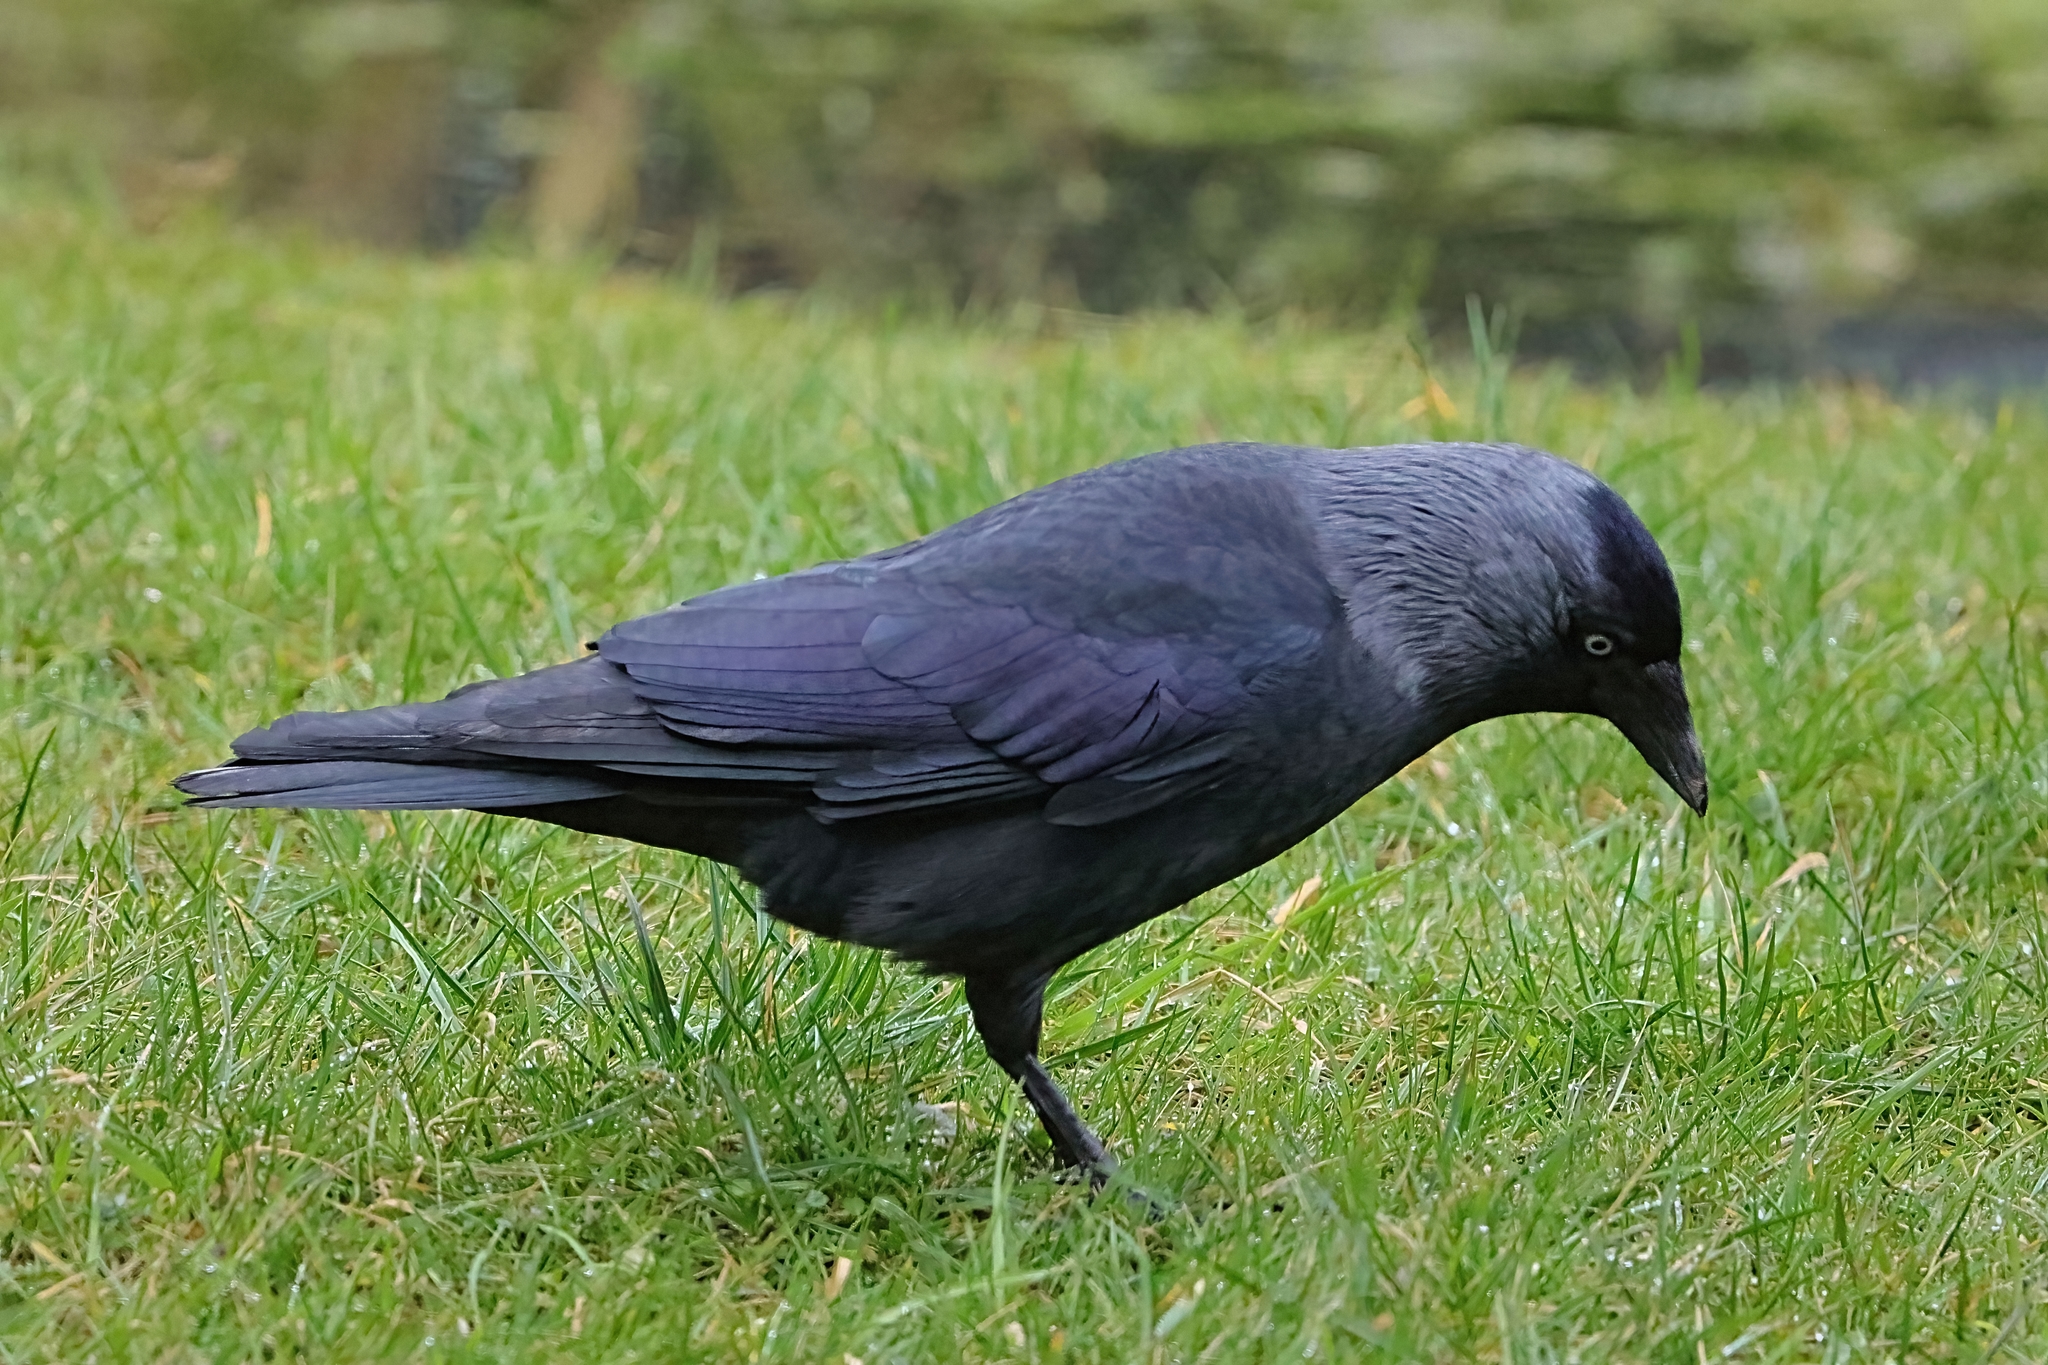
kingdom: Animalia
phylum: Chordata
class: Aves
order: Passeriformes
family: Corvidae
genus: Coloeus
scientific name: Coloeus monedula
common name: Western jackdaw
